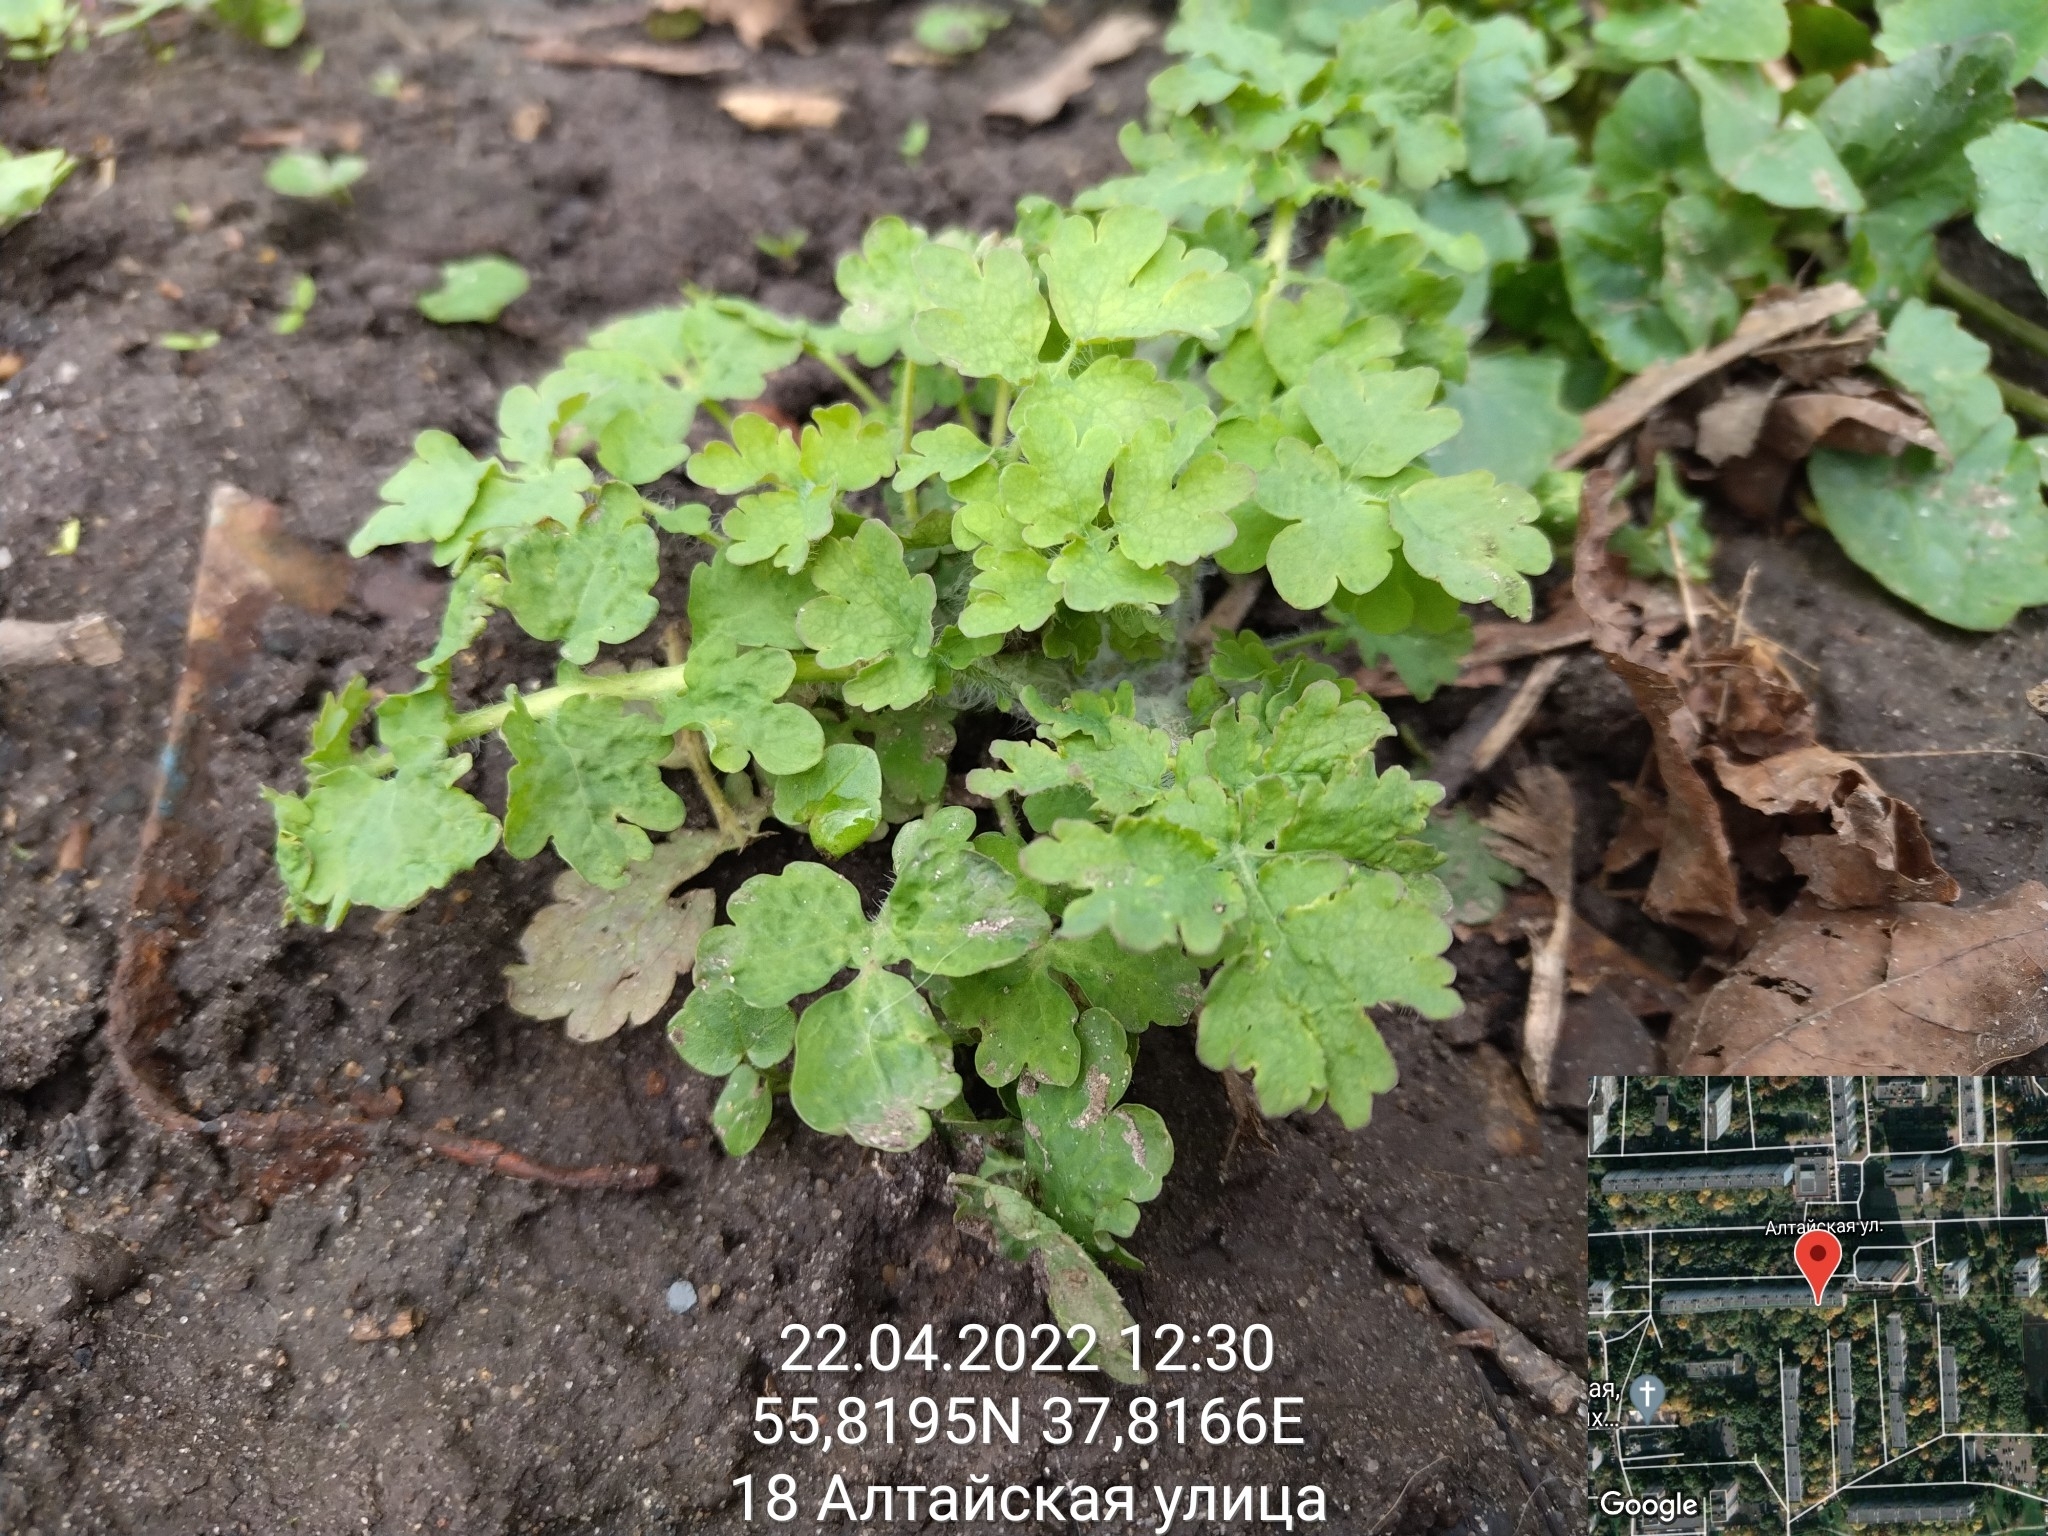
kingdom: Plantae
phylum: Tracheophyta
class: Magnoliopsida
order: Ranunculales
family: Papaveraceae
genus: Chelidonium
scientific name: Chelidonium majus
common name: Greater celandine
